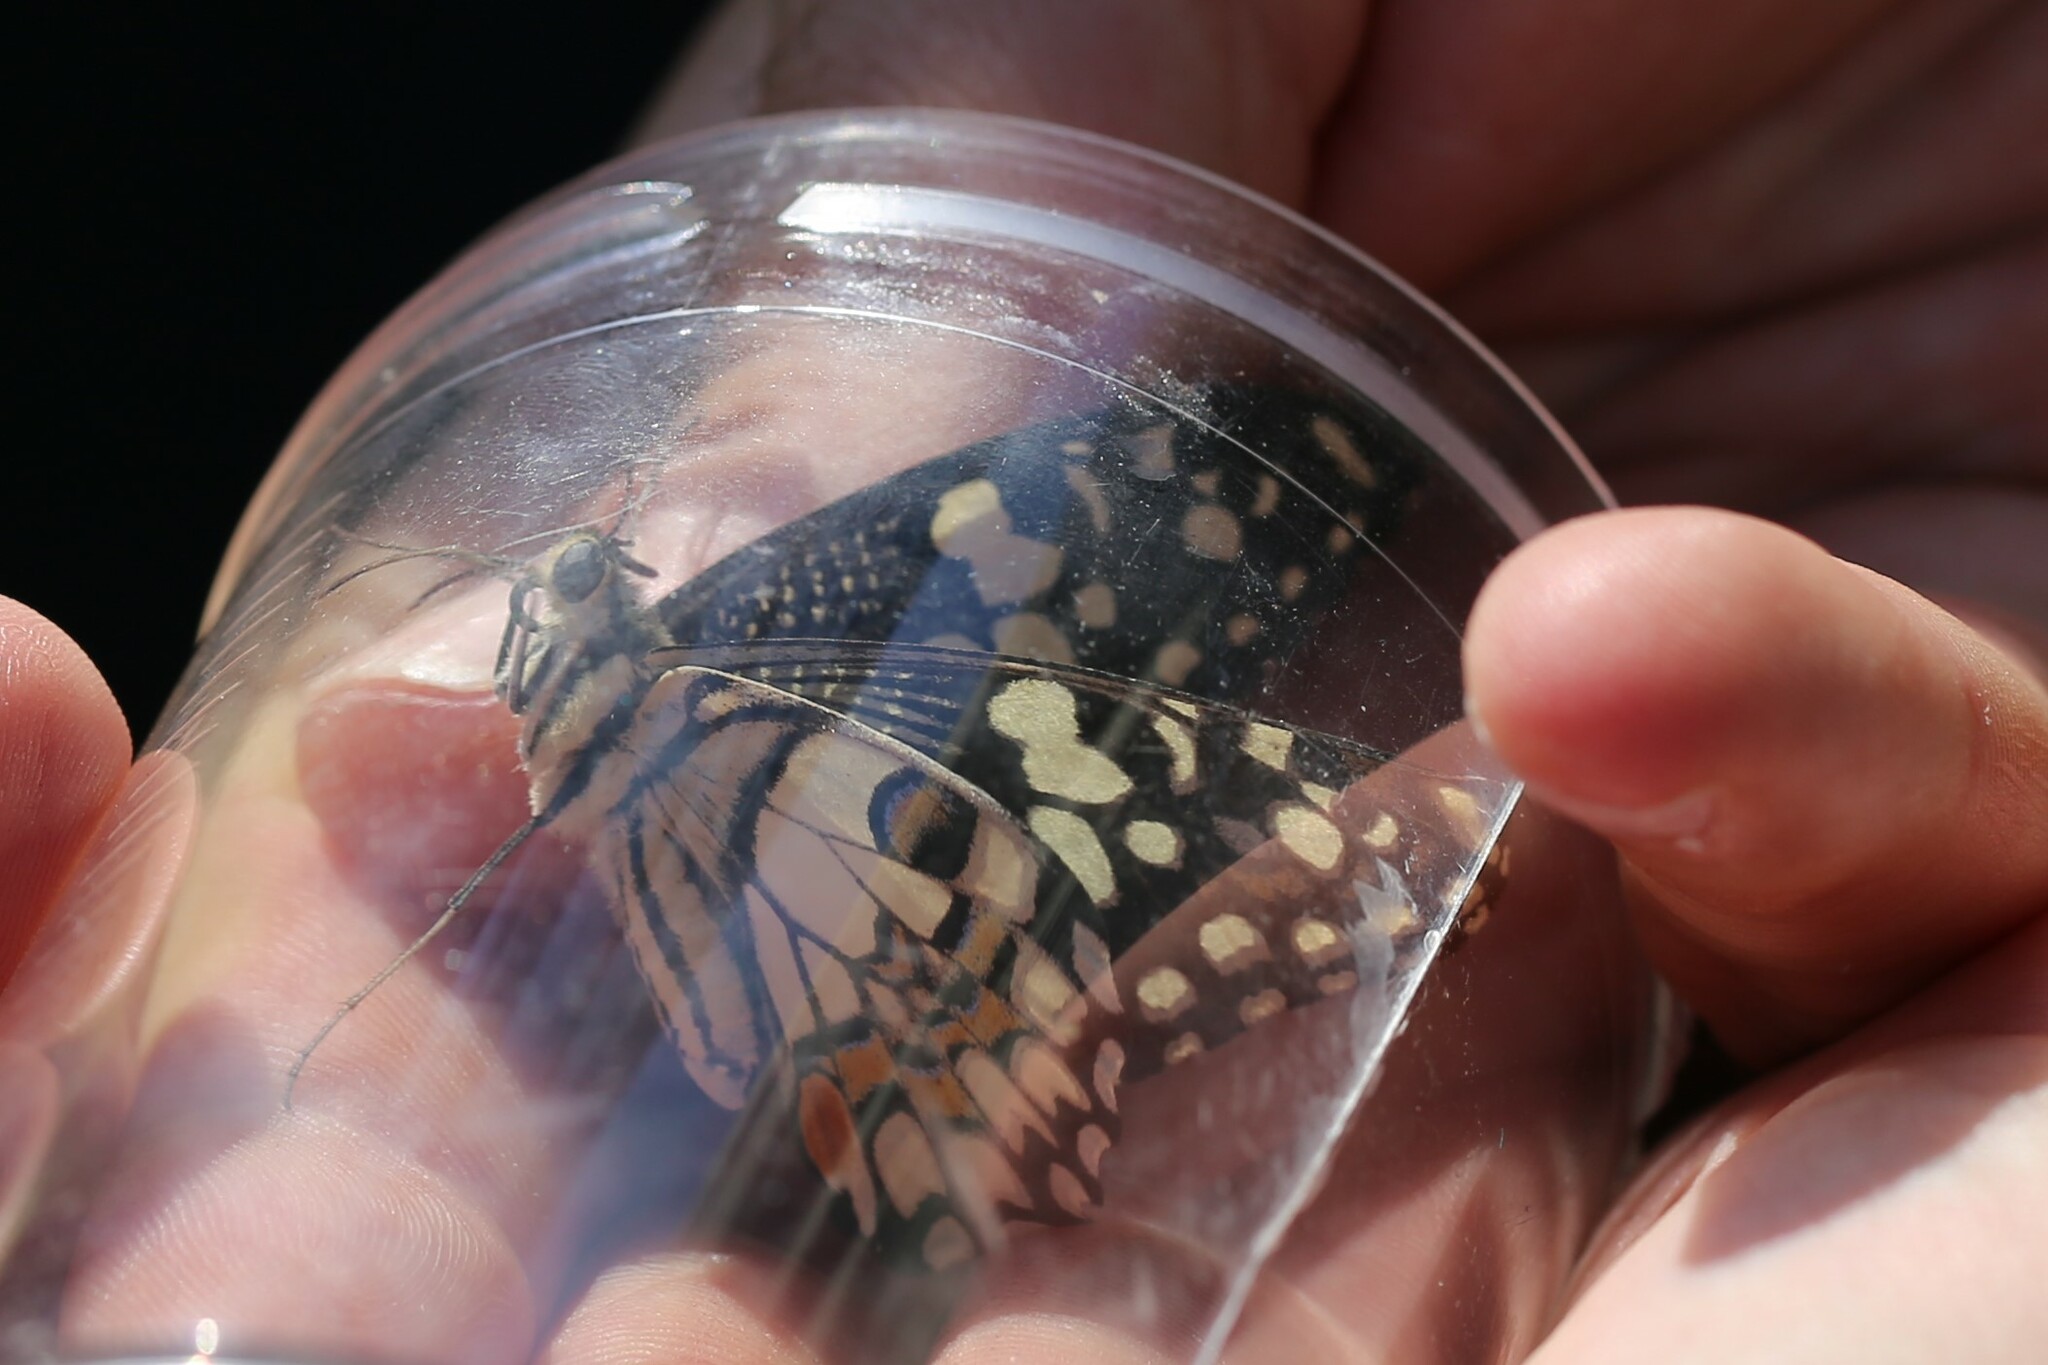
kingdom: Animalia
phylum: Arthropoda
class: Insecta
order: Lepidoptera
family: Papilionidae
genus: Papilio
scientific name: Papilio demoleus
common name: Lime butterfly
